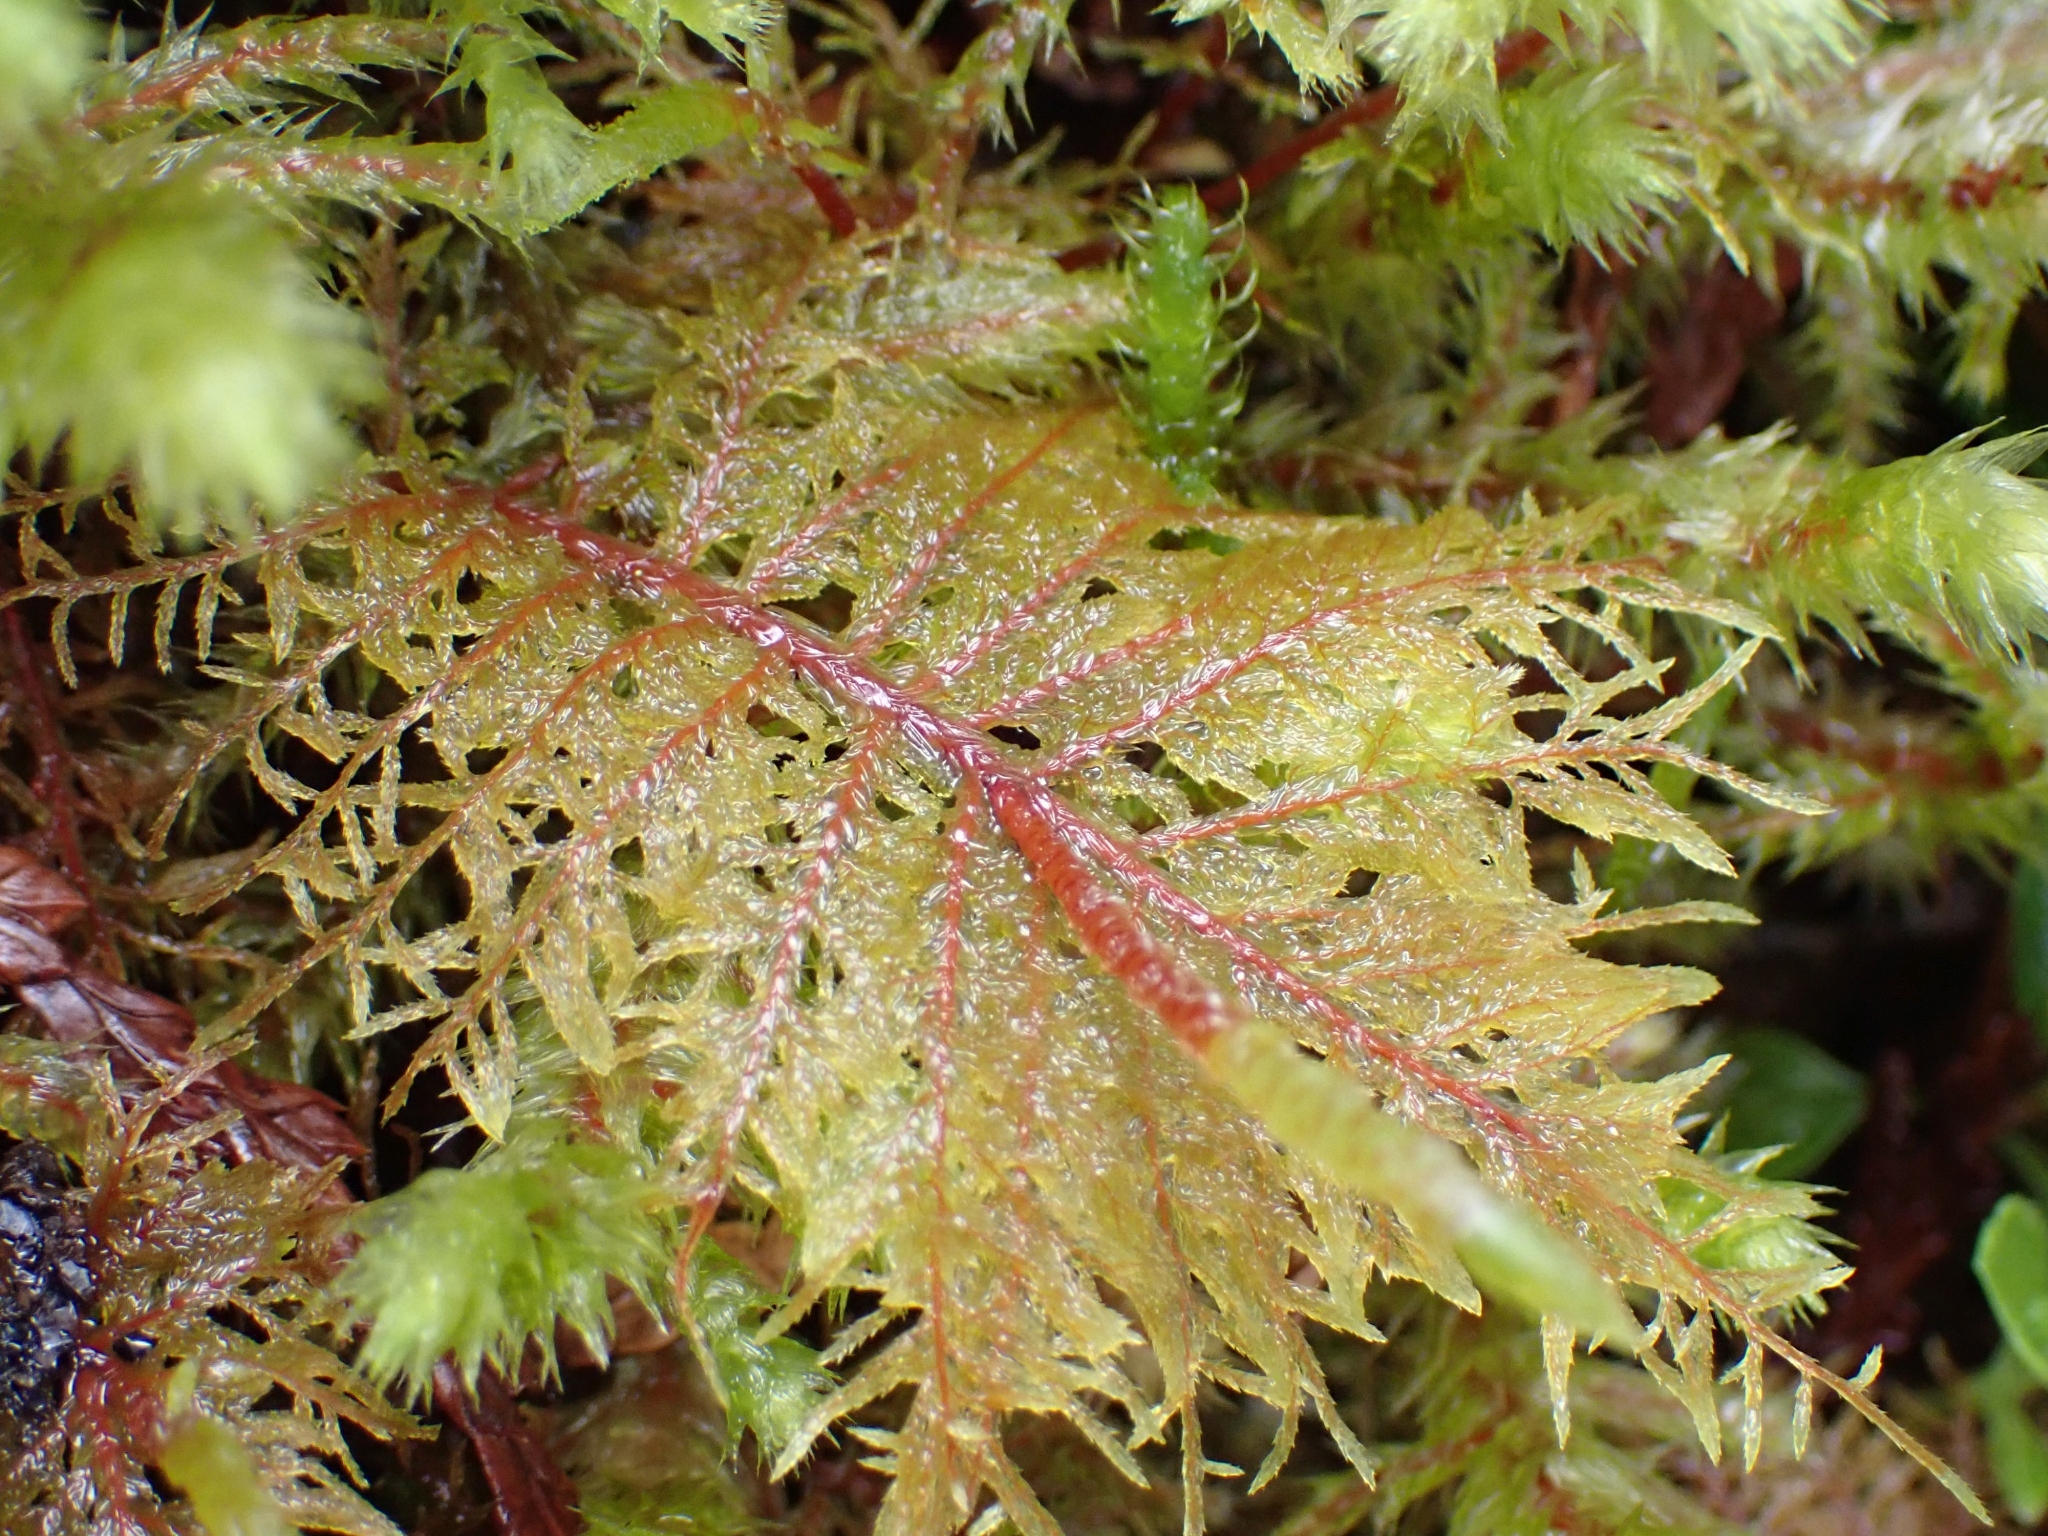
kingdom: Plantae
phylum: Bryophyta
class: Bryopsida
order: Hypnales
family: Hylocomiaceae
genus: Hylocomium
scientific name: Hylocomium splendens
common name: Stairstep moss
